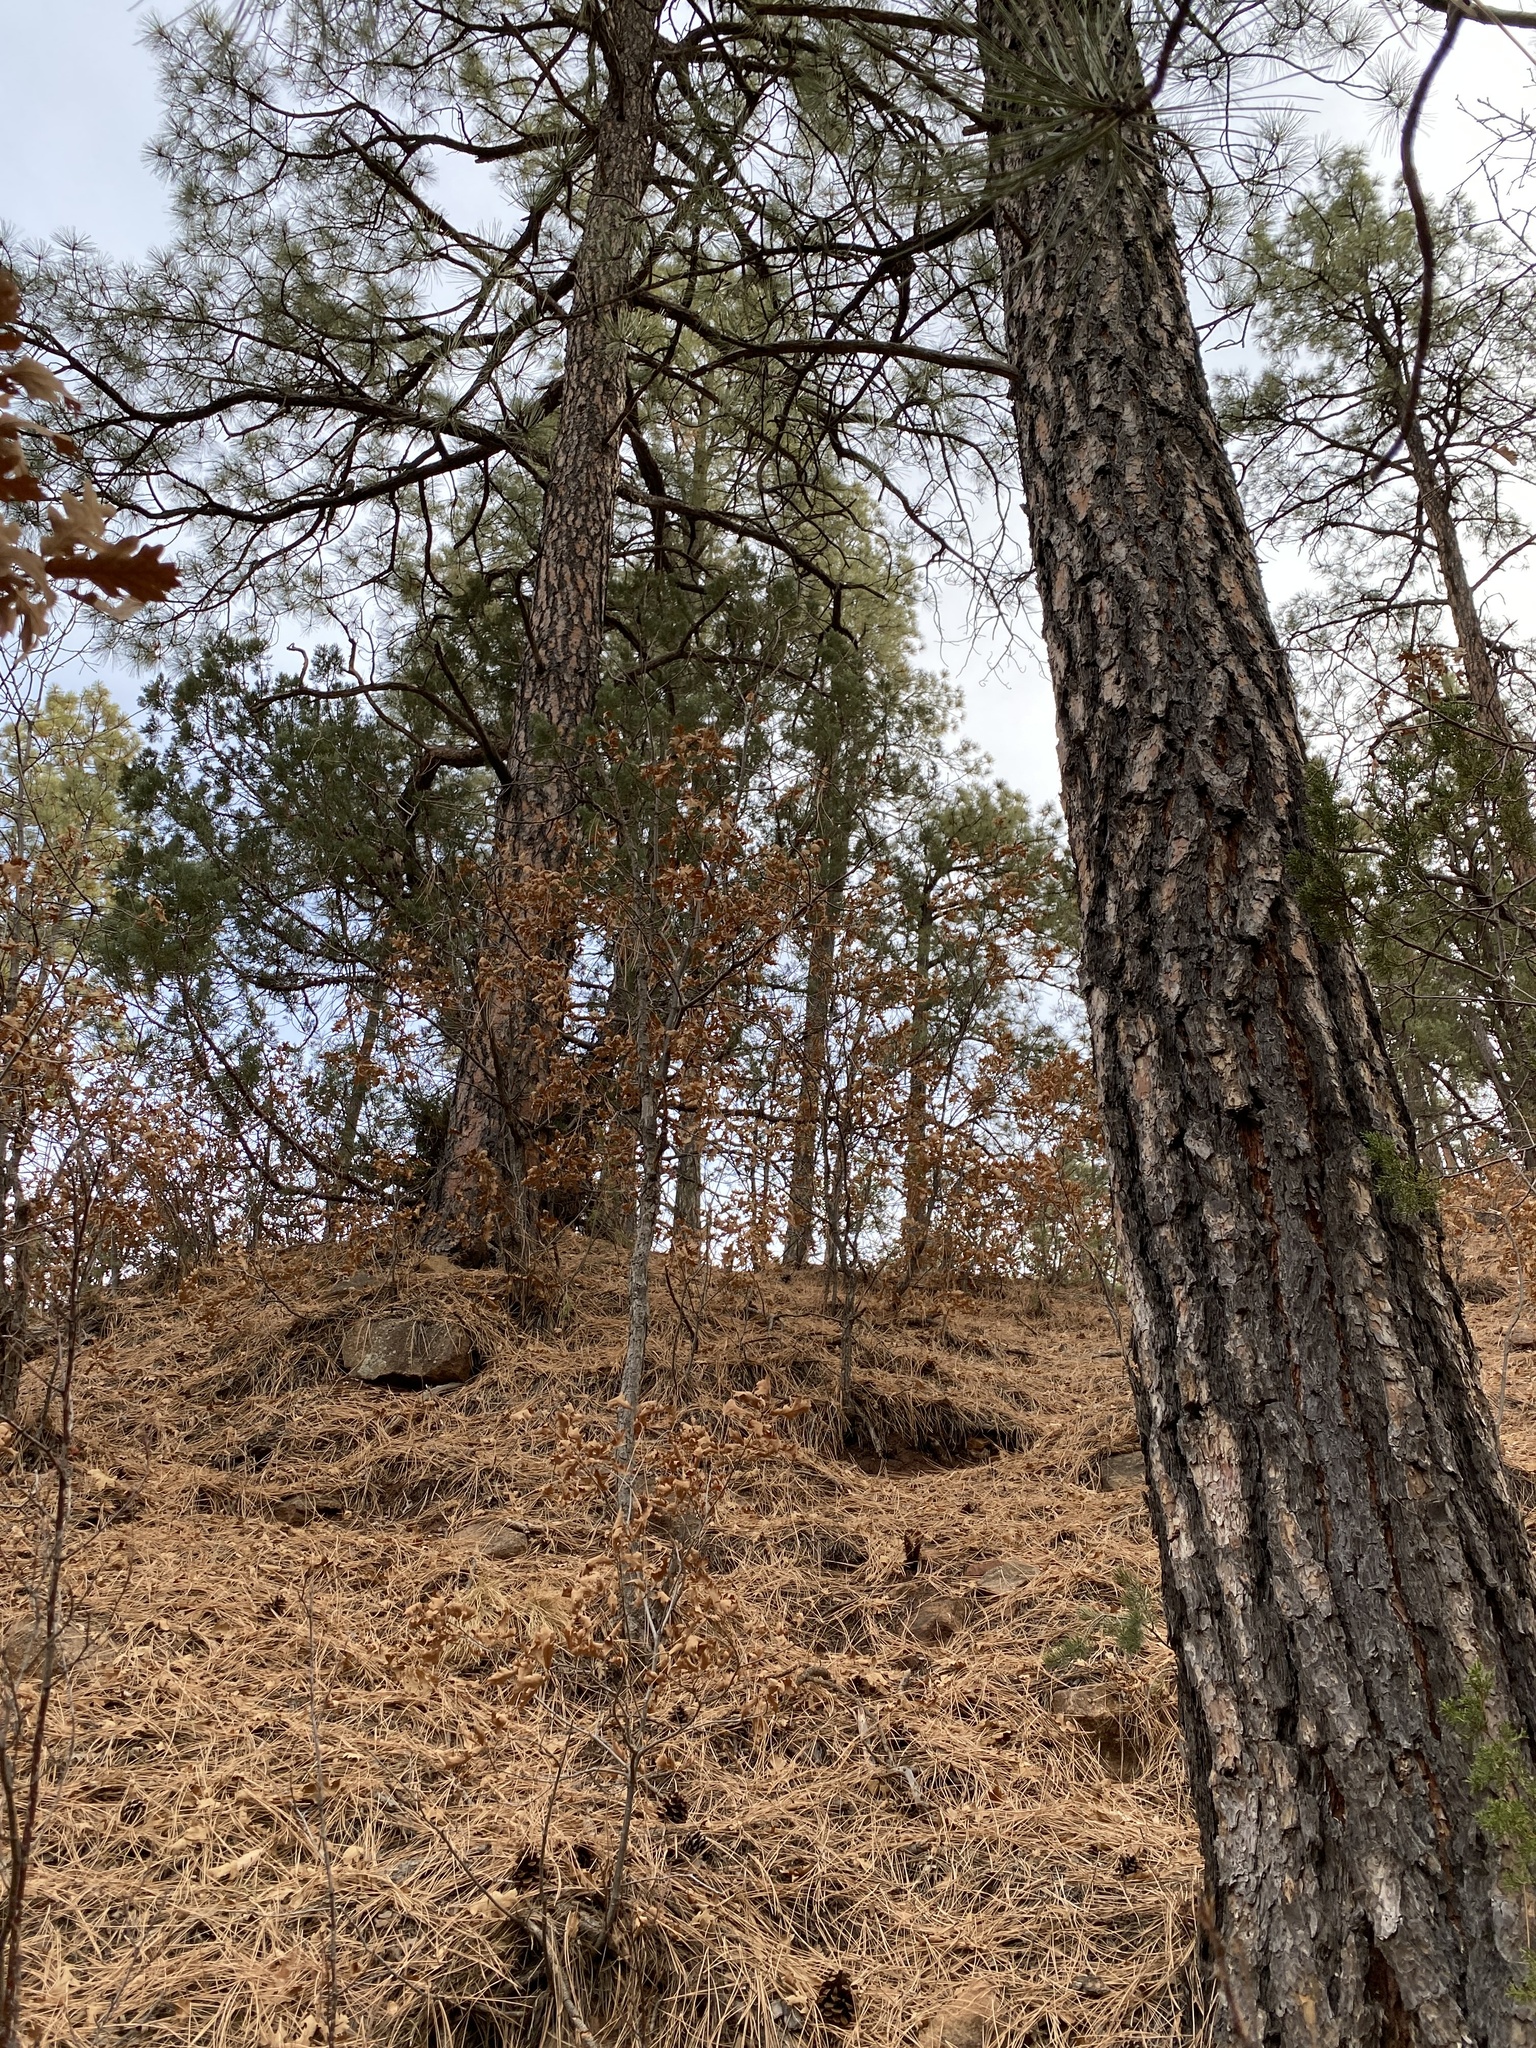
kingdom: Plantae
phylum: Tracheophyta
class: Pinopsida
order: Pinales
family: Pinaceae
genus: Pinus
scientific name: Pinus ponderosa
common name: Western yellow-pine
